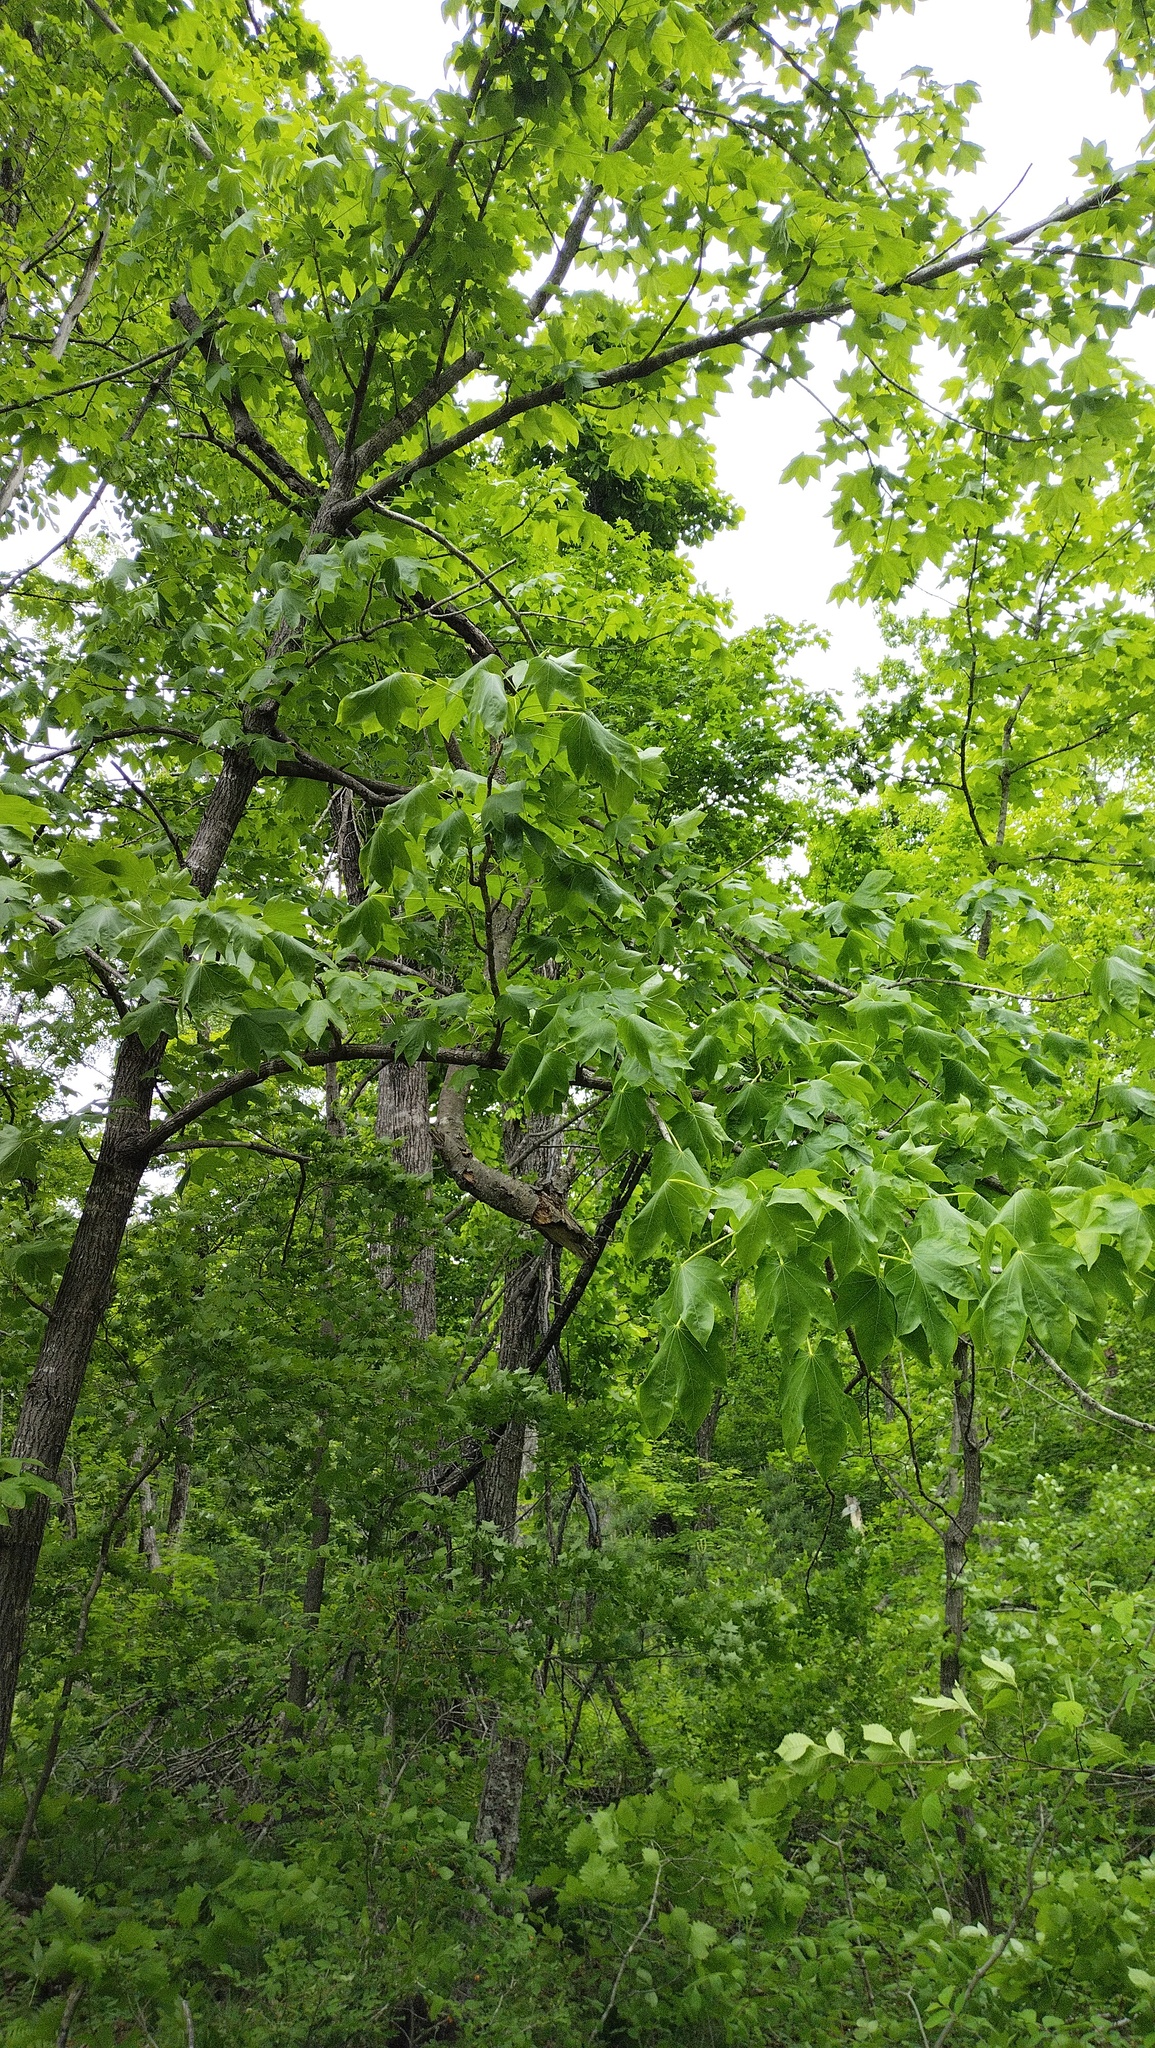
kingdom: Plantae
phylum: Tracheophyta
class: Magnoliopsida
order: Apiales
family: Araliaceae
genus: Kalopanax
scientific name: Kalopanax septemlobus
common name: Castor aralia
